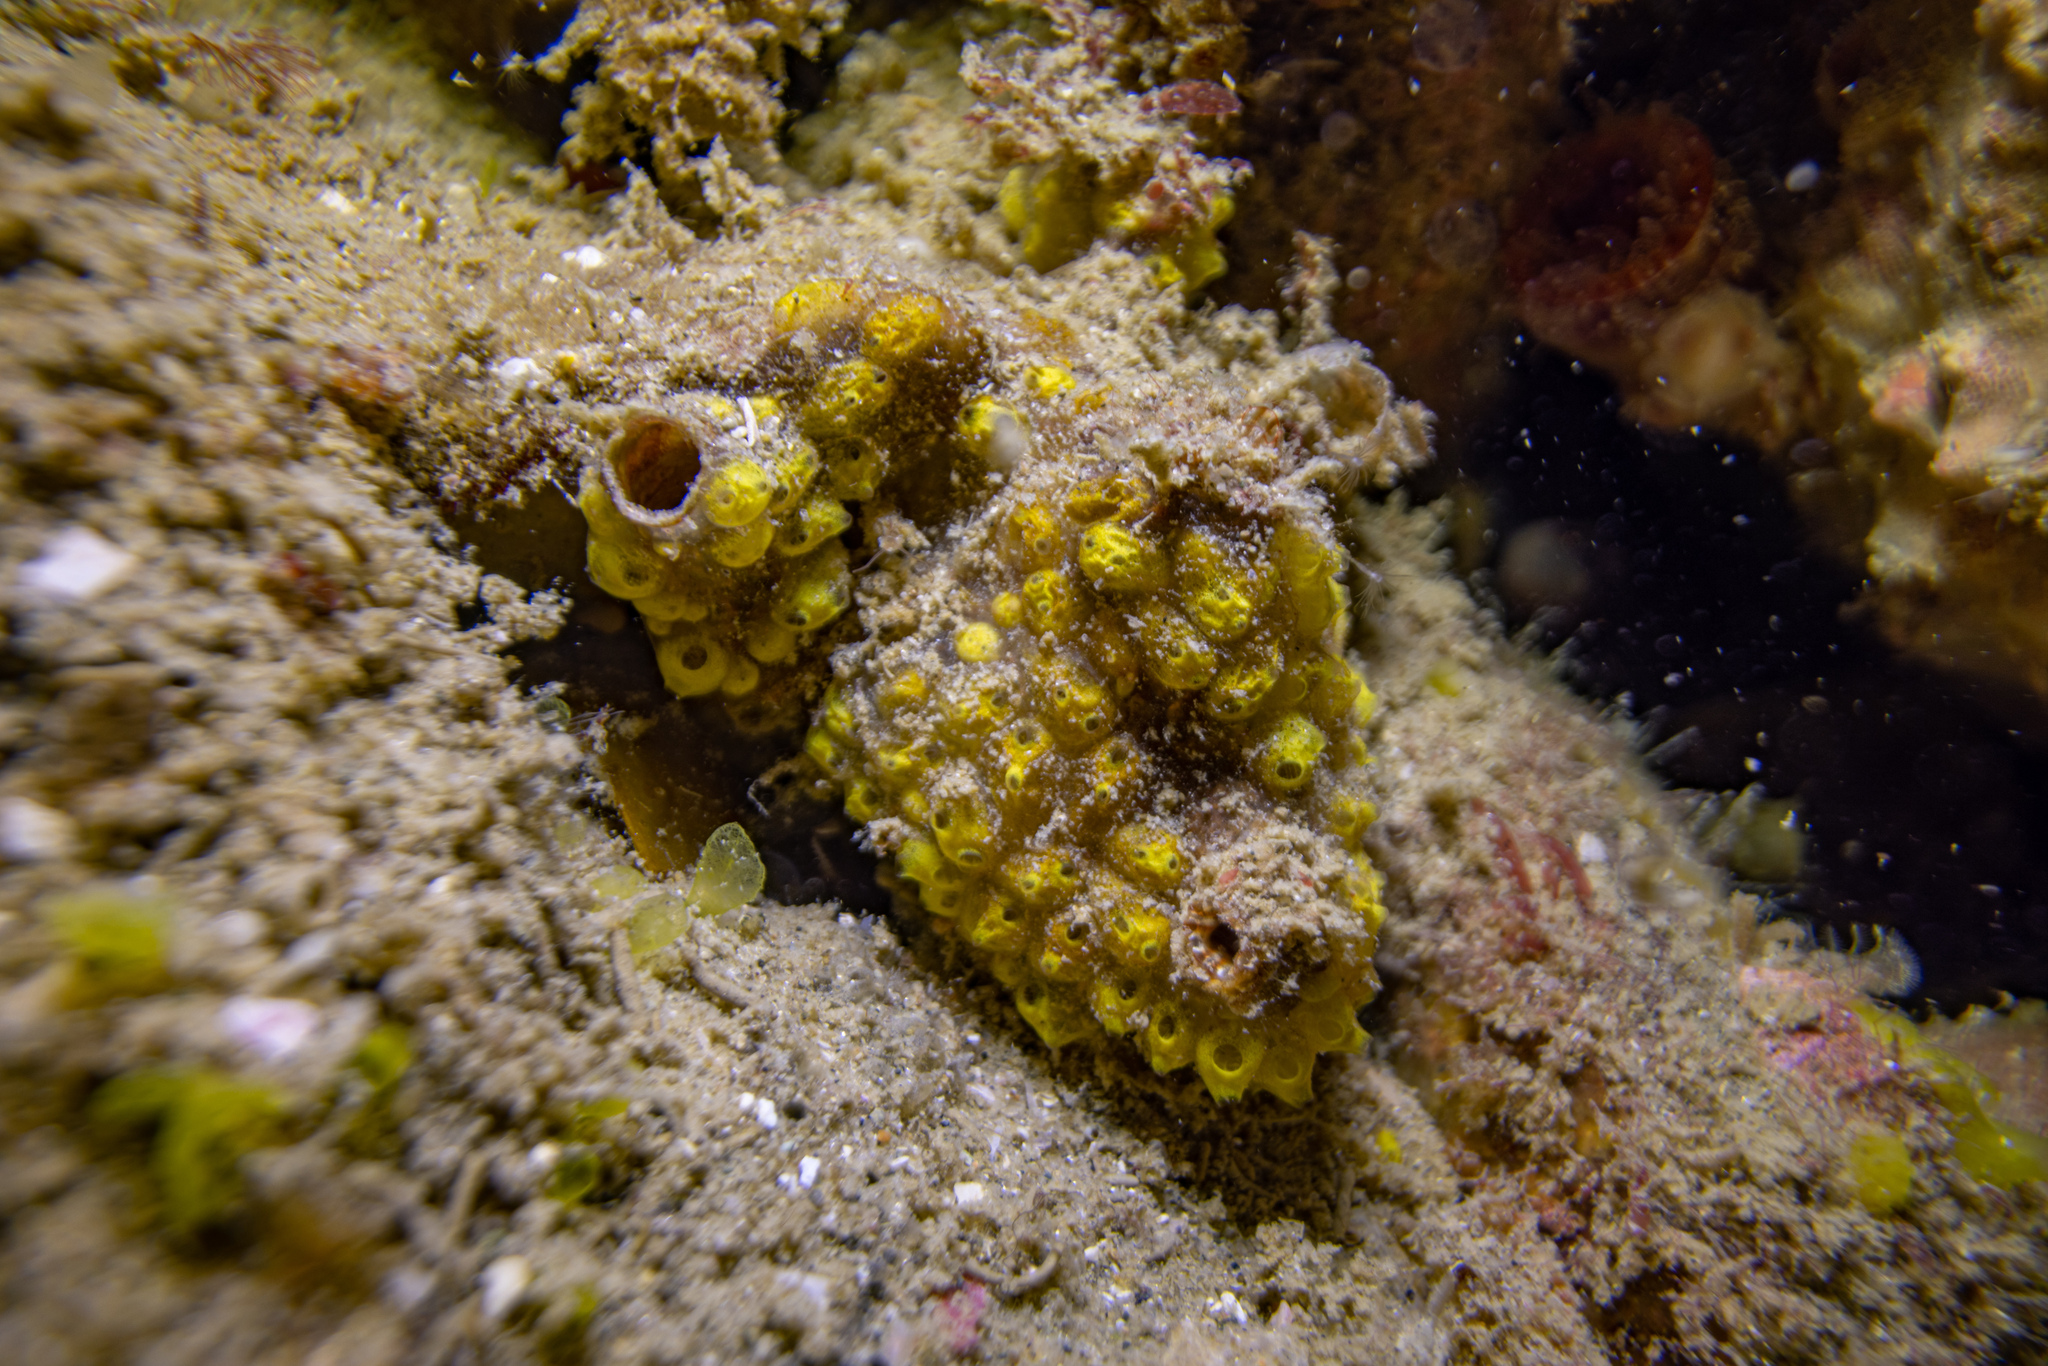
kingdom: Animalia
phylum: Chordata
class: Ascidiacea
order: Stolidobranchia
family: Styelidae
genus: Symplegma
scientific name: Symplegma brakenhielmi
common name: Ascidian
